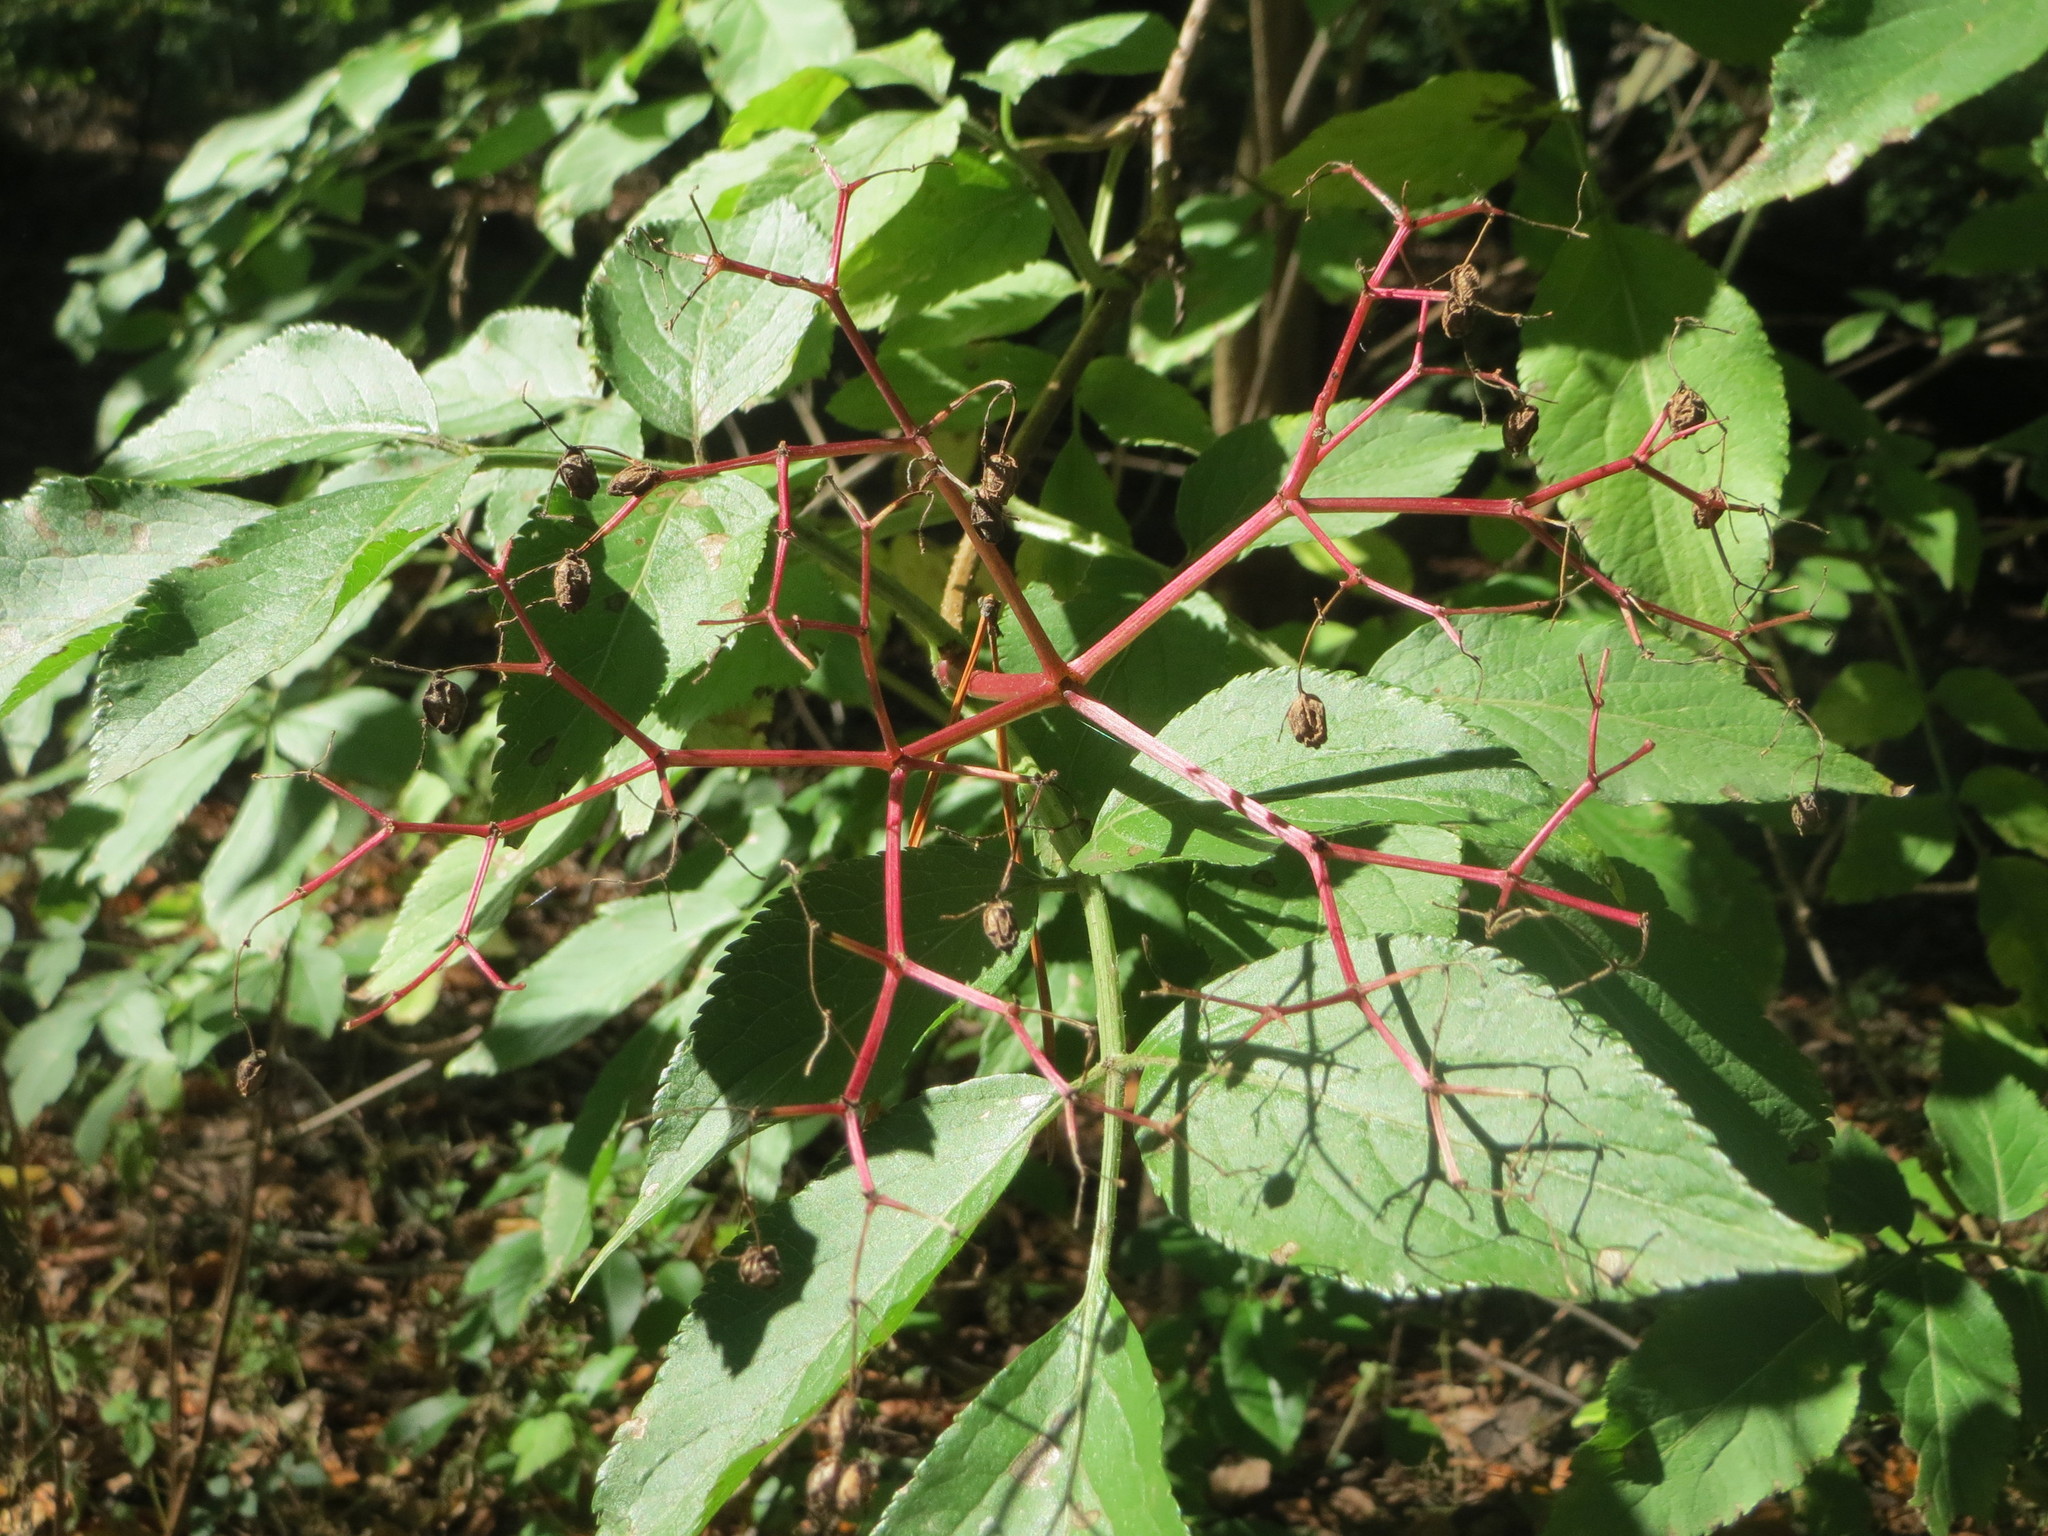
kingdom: Plantae
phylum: Tracheophyta
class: Magnoliopsida
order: Dipsacales
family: Viburnaceae
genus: Sambucus
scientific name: Sambucus nigra
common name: Elder
